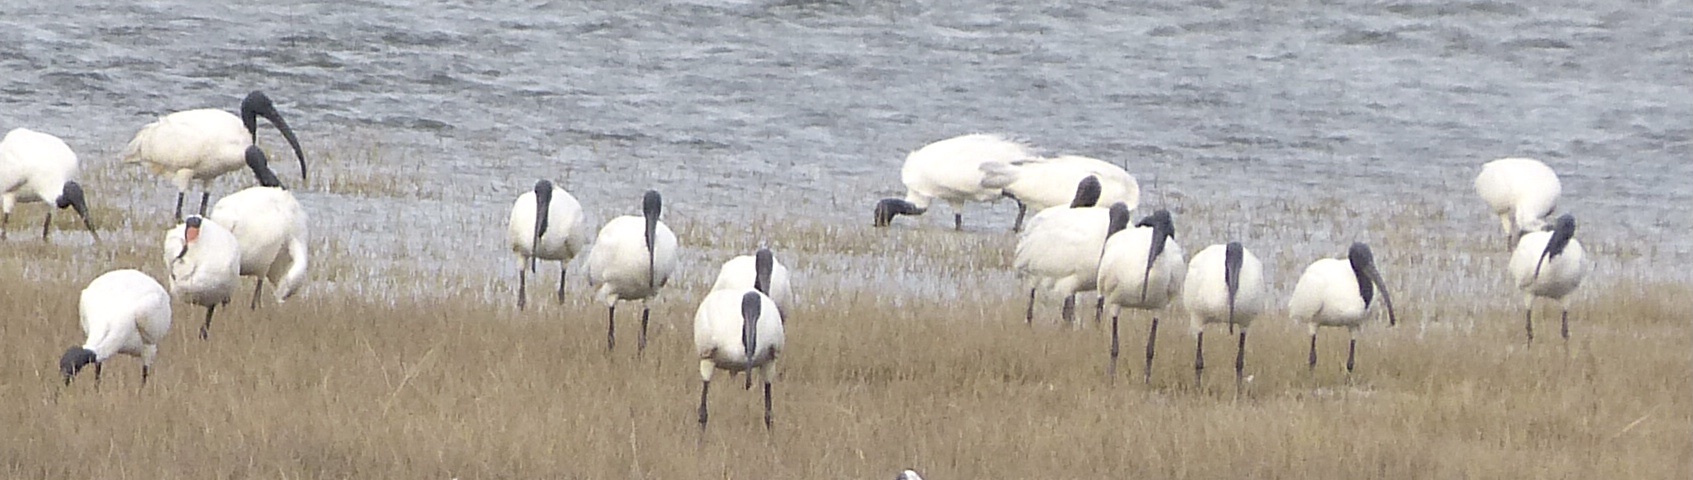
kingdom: Animalia
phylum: Chordata
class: Aves
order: Pelecaniformes
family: Threskiornithidae
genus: Threskiornis
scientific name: Threskiornis melanocephalus
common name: Black-headed ibis
